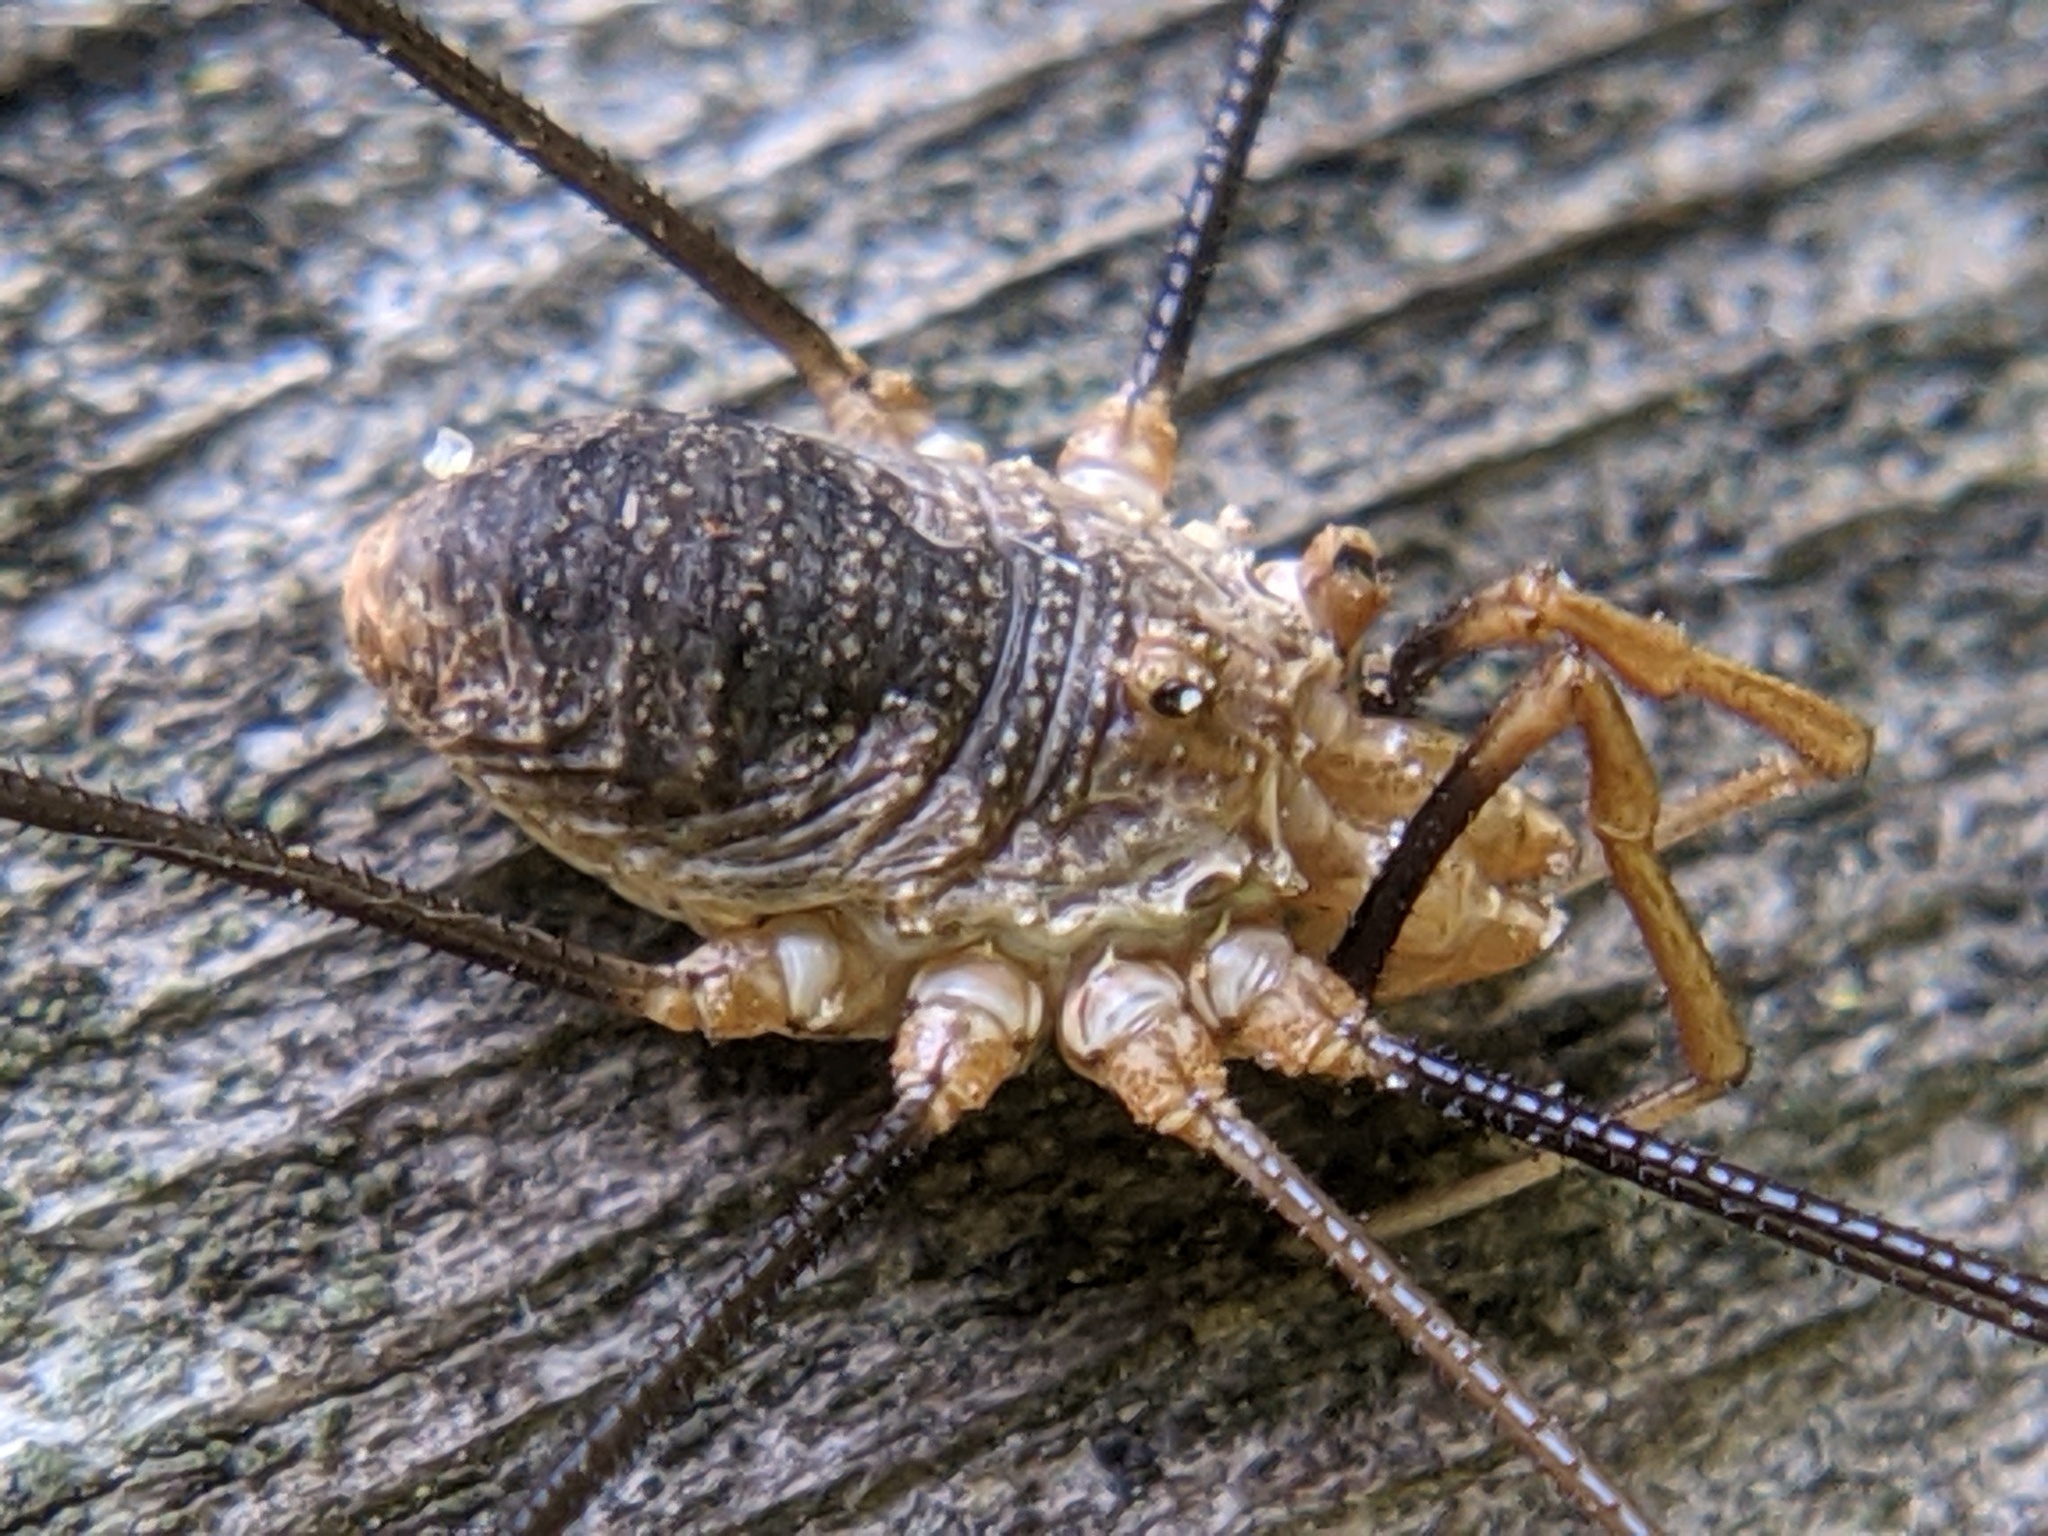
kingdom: Animalia
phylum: Arthropoda
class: Arachnida
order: Opiliones
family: Phalangiidae
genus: Phalangium
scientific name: Phalangium opilio
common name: Daddy longleg
